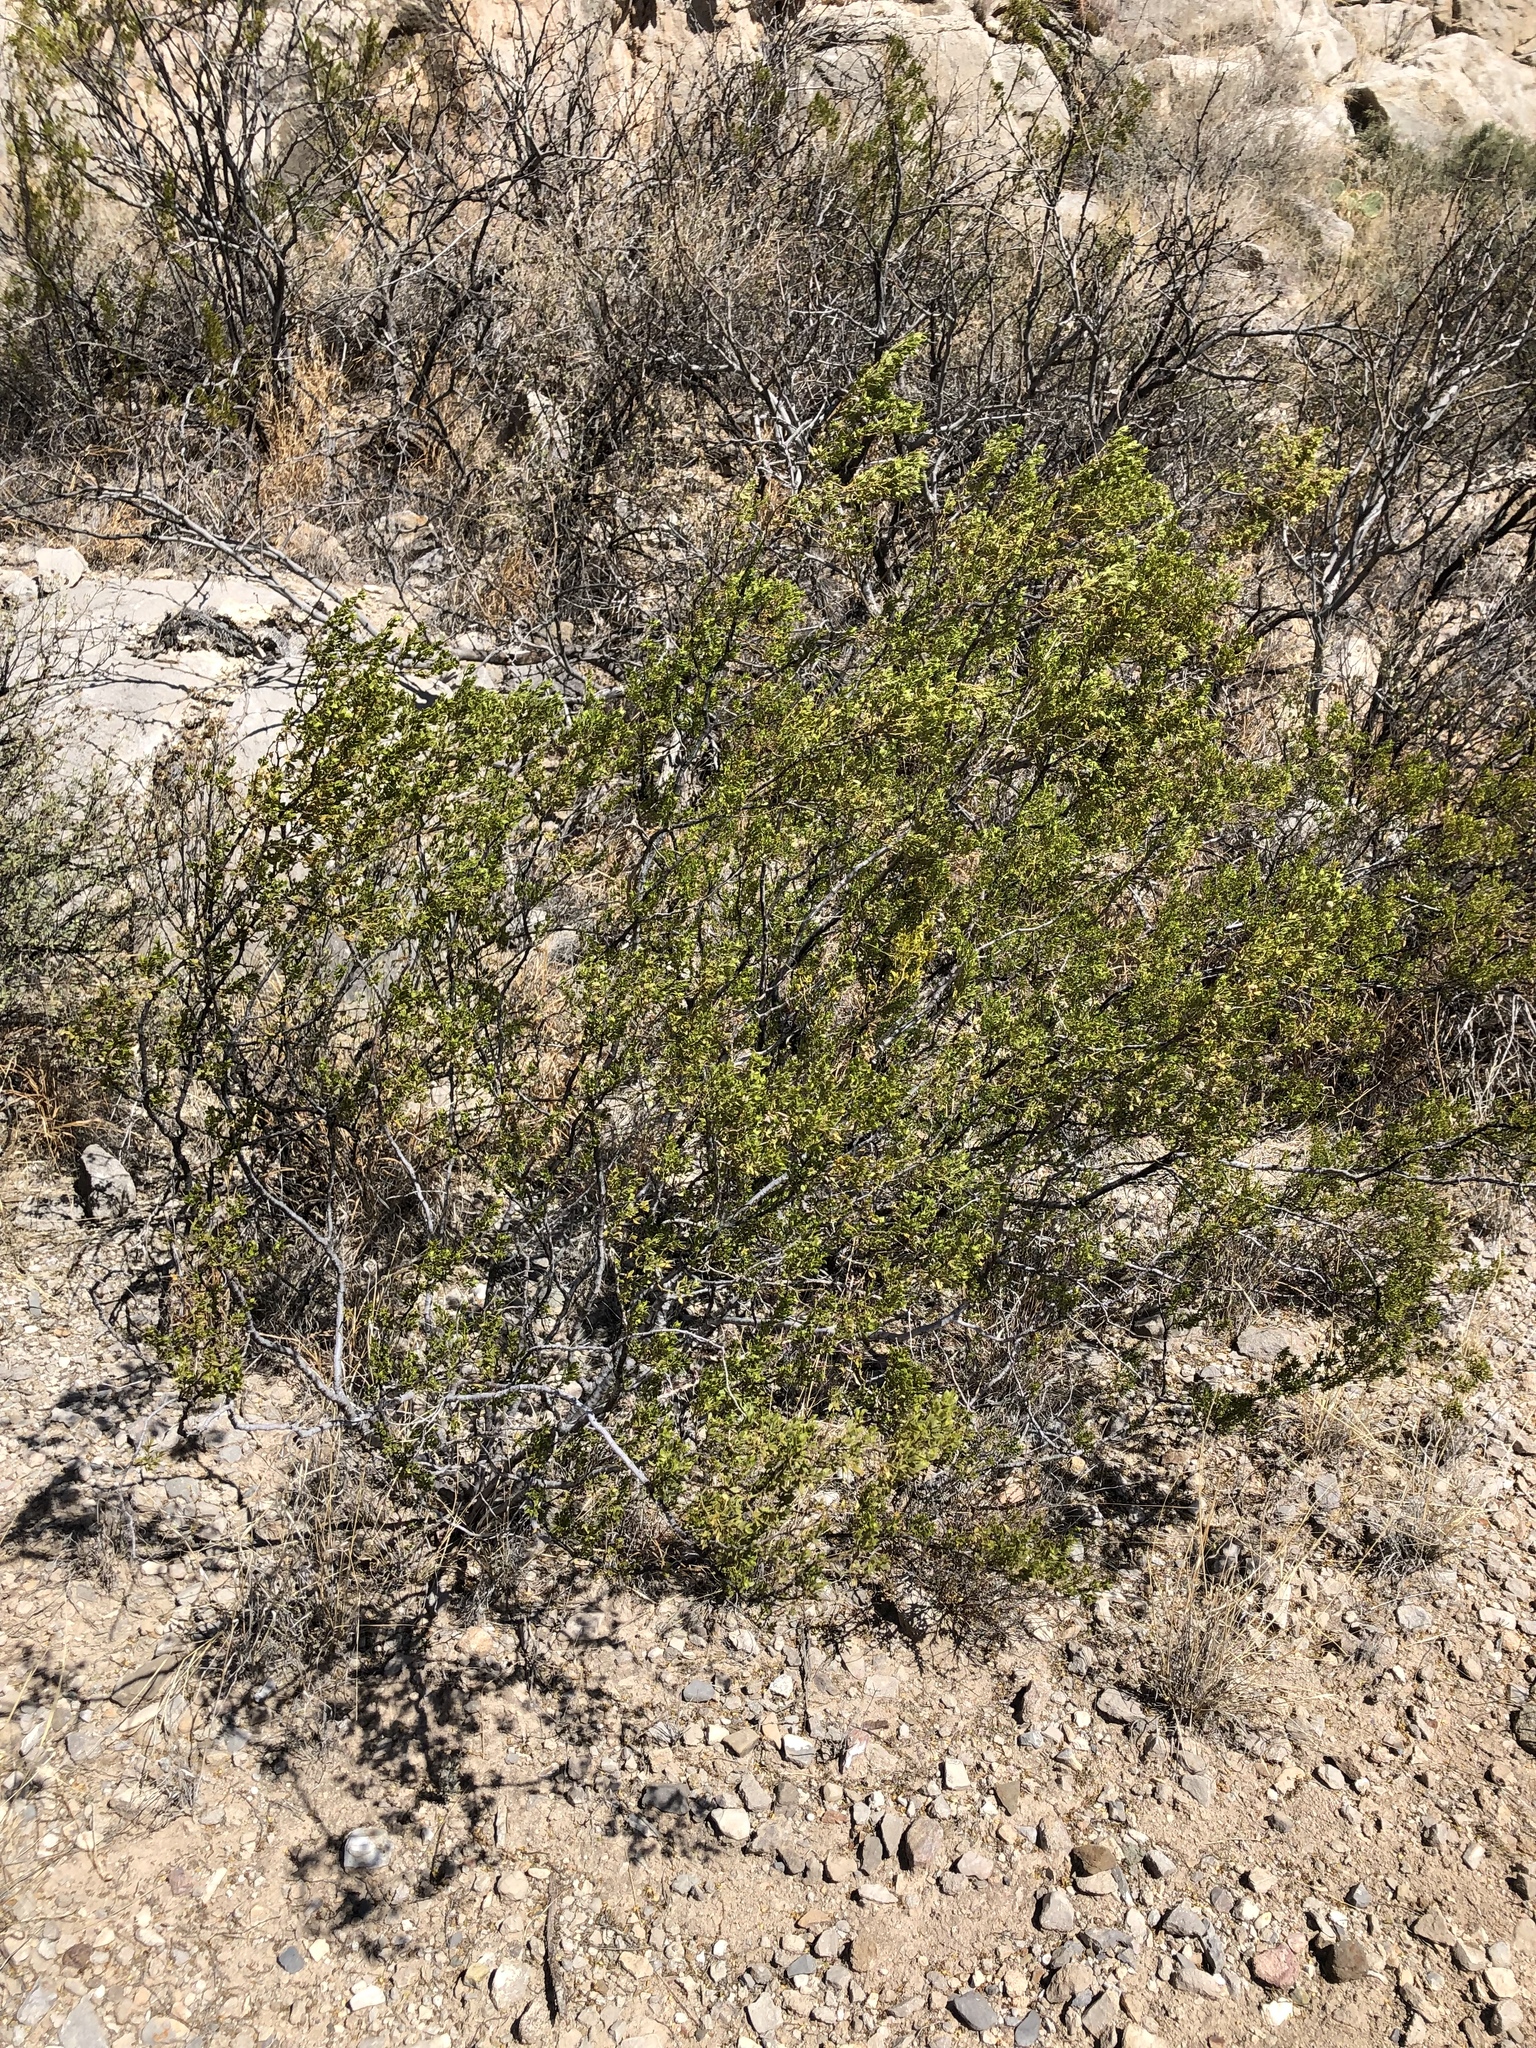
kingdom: Plantae
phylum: Tracheophyta
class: Magnoliopsida
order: Zygophyllales
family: Zygophyllaceae
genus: Larrea
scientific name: Larrea tridentata
